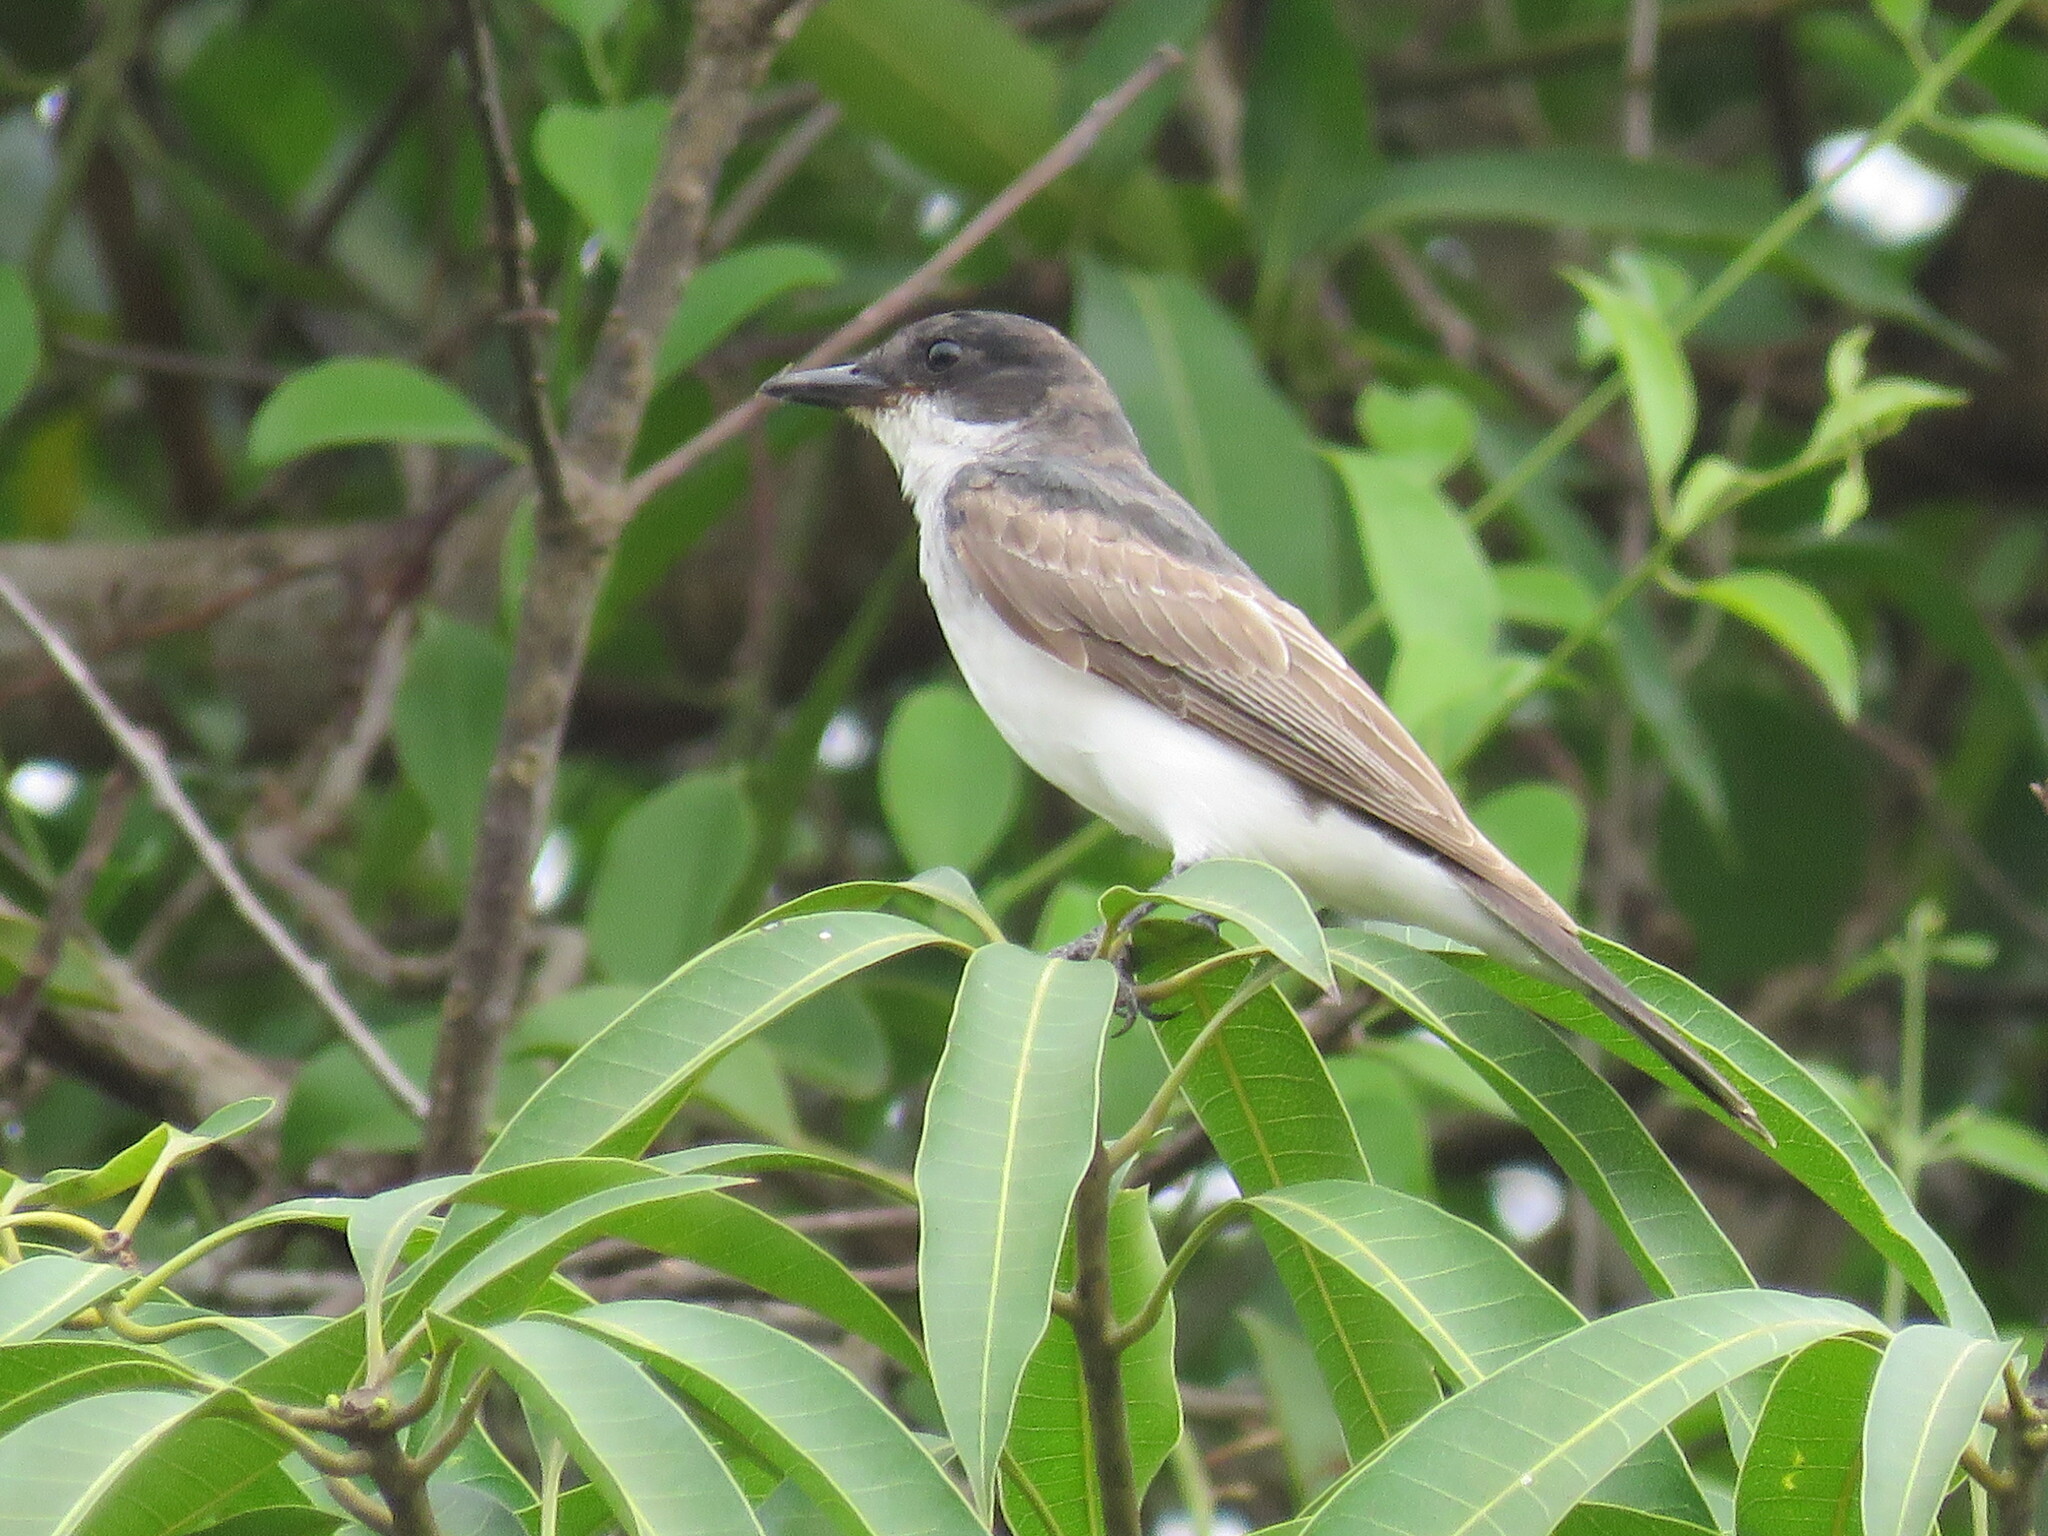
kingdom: Animalia
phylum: Chordata
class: Aves
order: Passeriformes
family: Tyrannidae
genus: Tyrannus
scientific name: Tyrannus tyrannus
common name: Eastern kingbird
